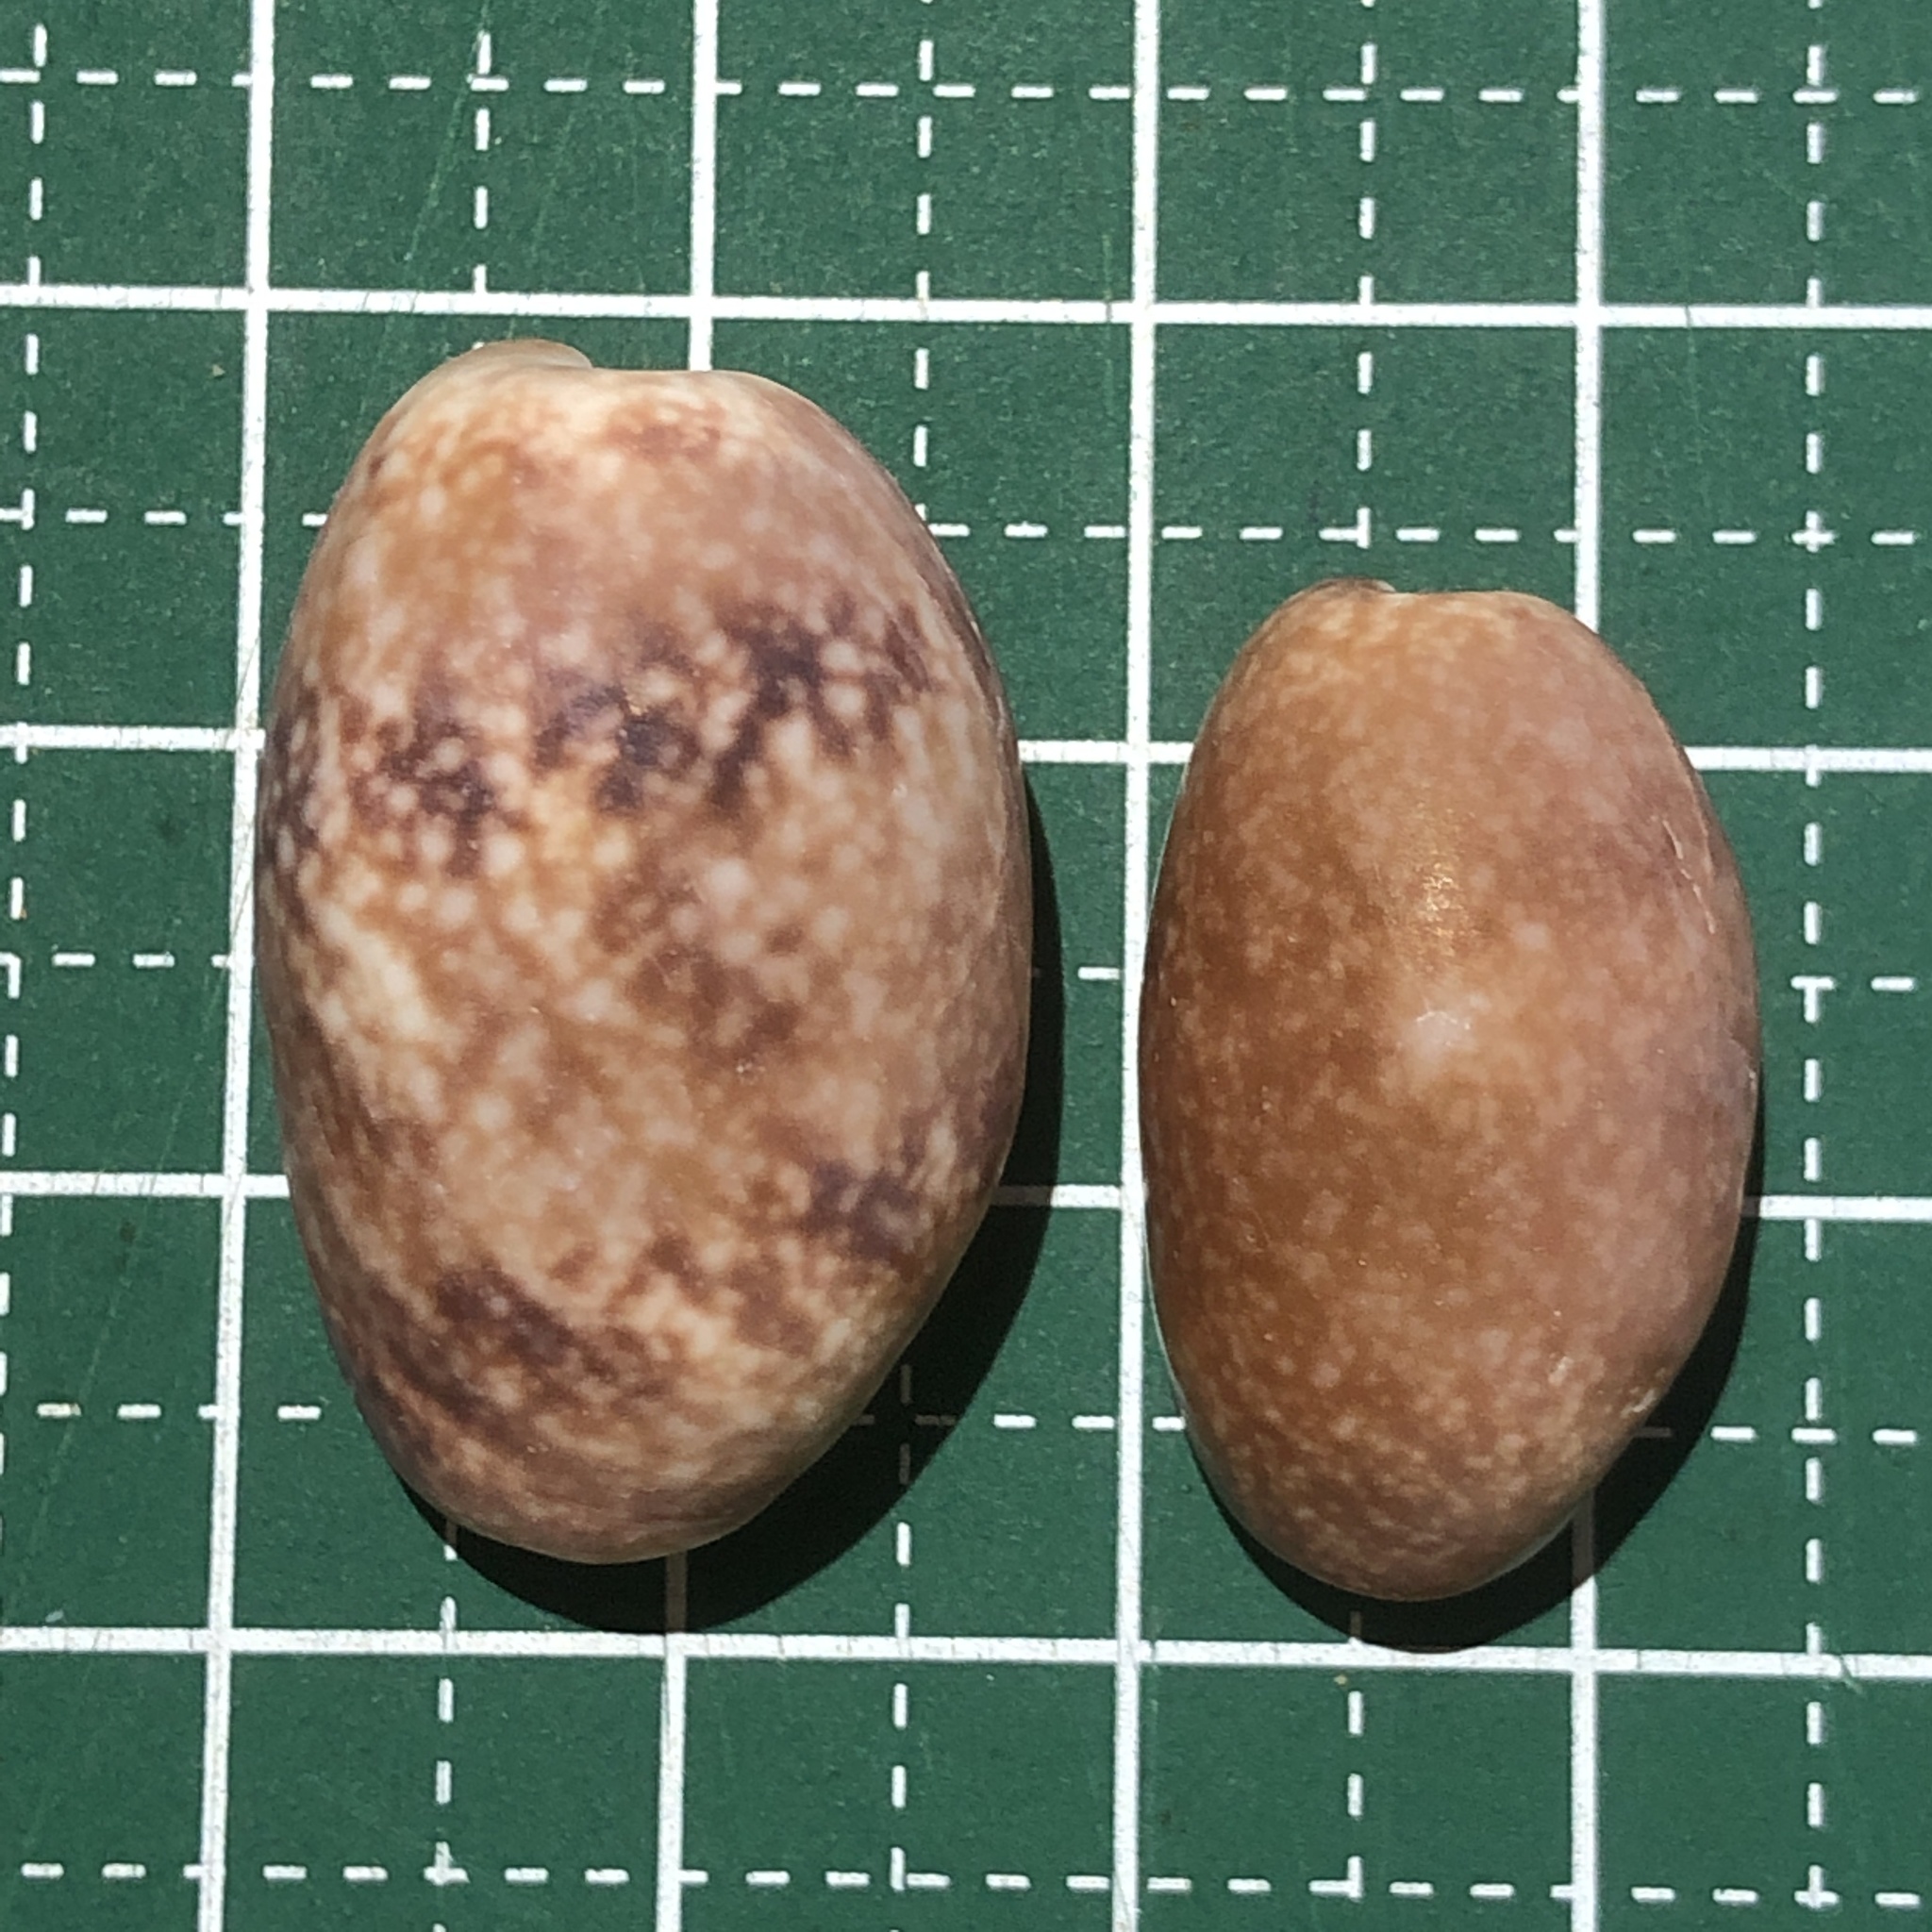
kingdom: Animalia
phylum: Mollusca
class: Gastropoda
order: Cephalaspidea
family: Bullidae
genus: Bulla
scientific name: Bulla vernicosa
